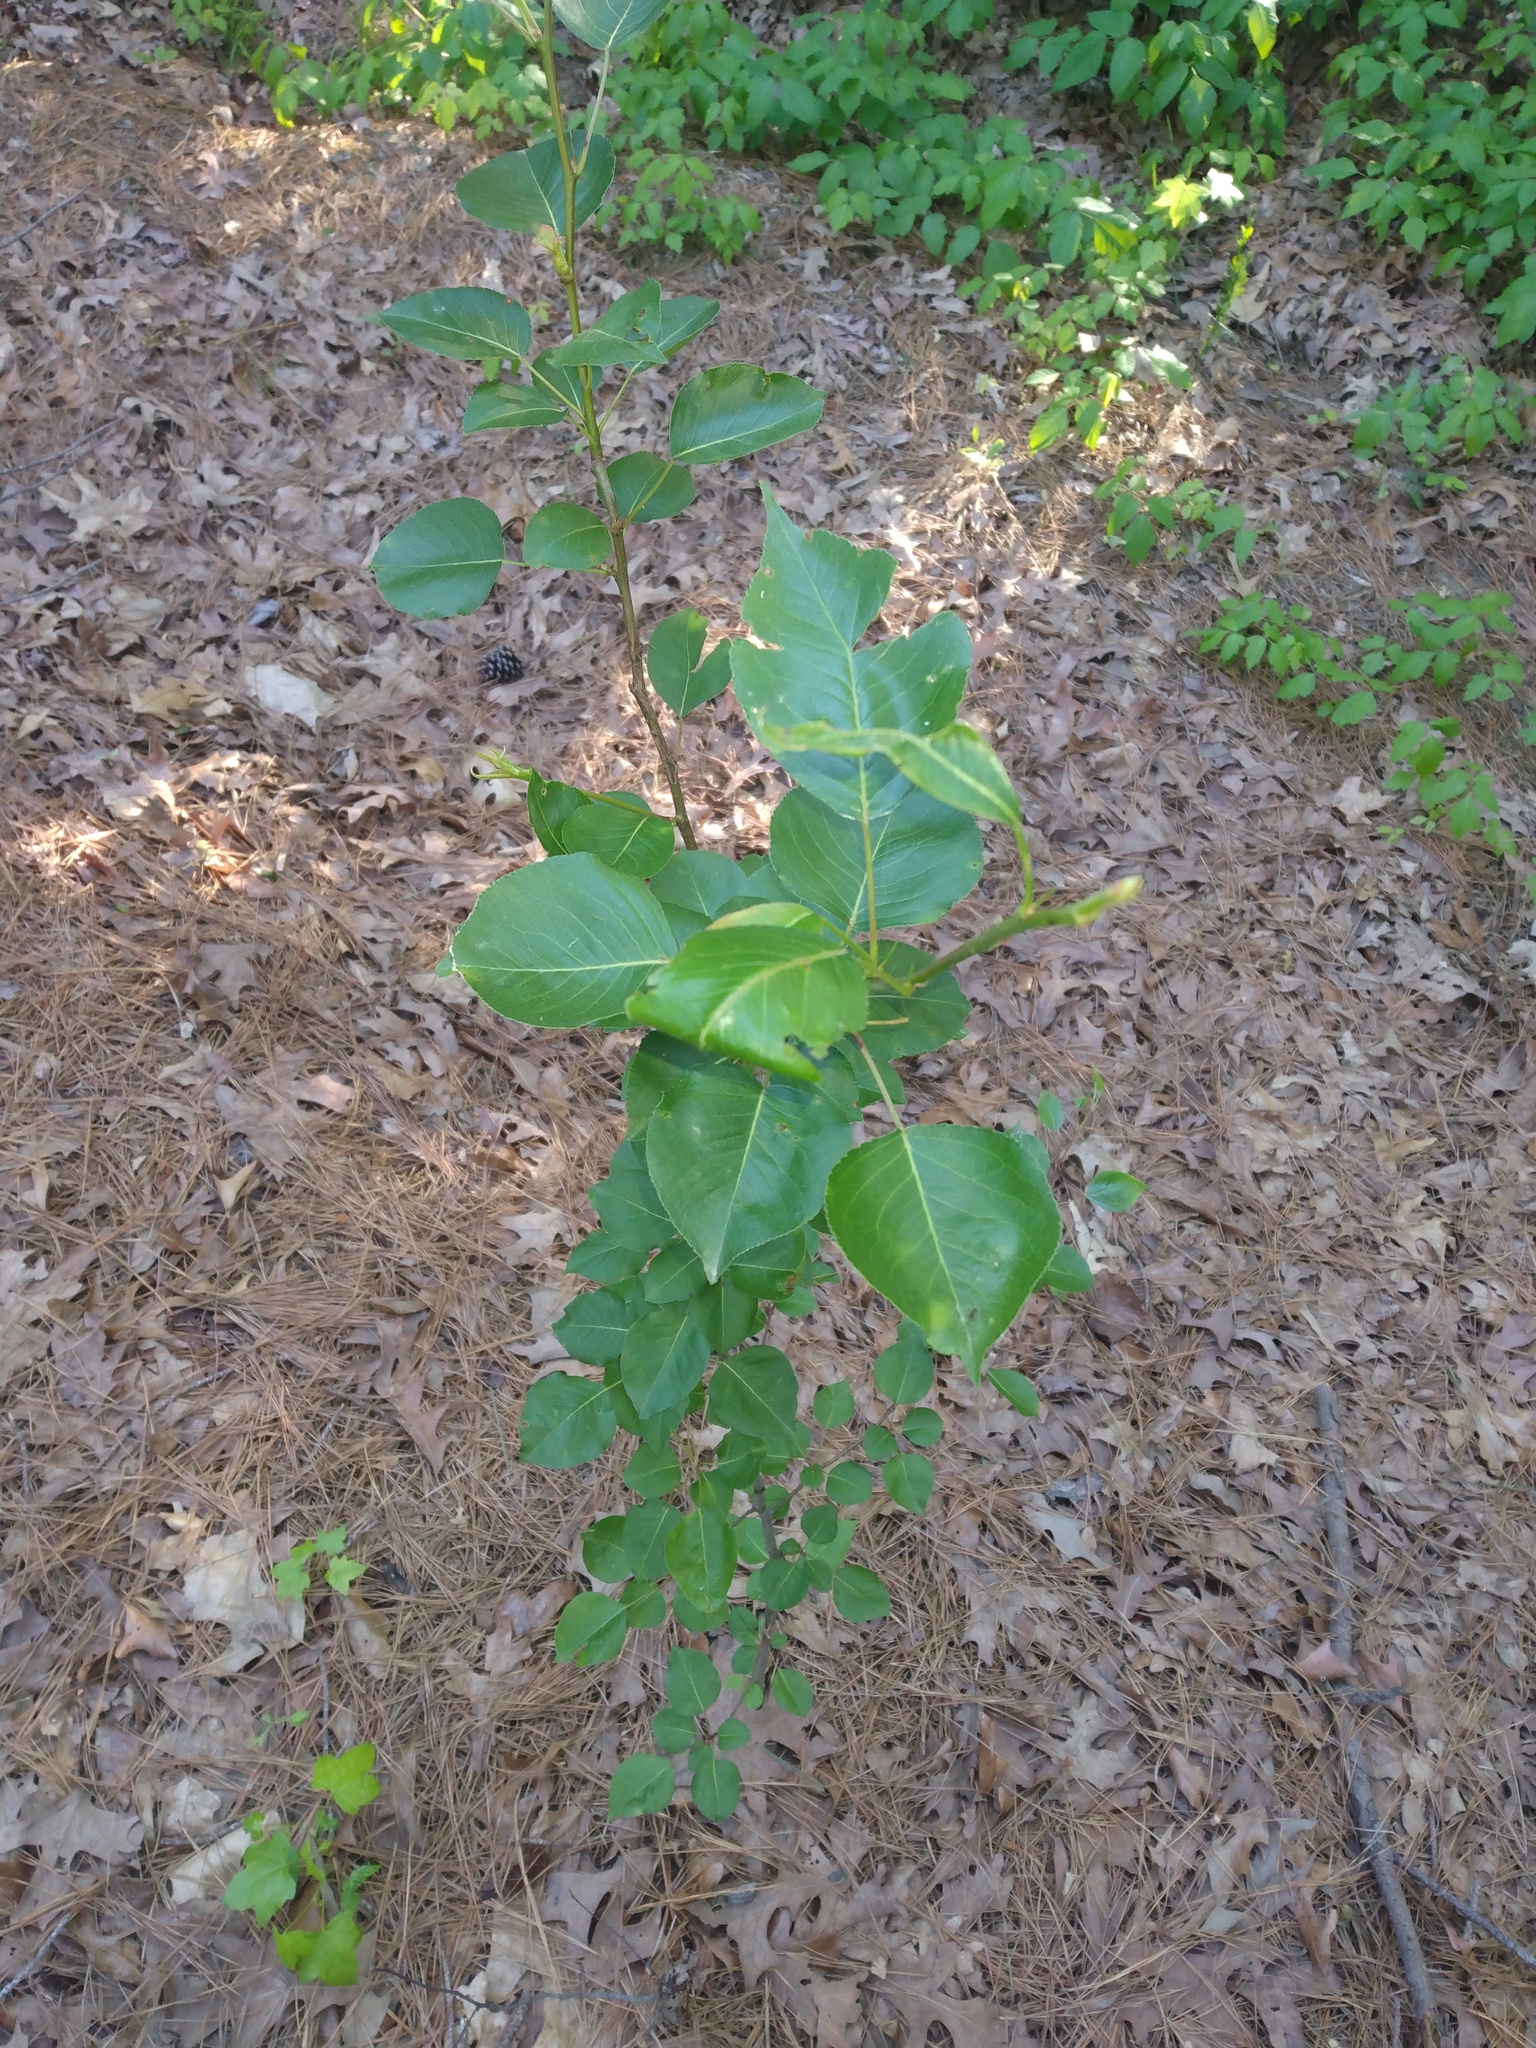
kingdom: Plantae
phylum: Tracheophyta
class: Magnoliopsida
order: Rosales
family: Rosaceae
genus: Pyrus
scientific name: Pyrus calleryana
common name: Callery pear
